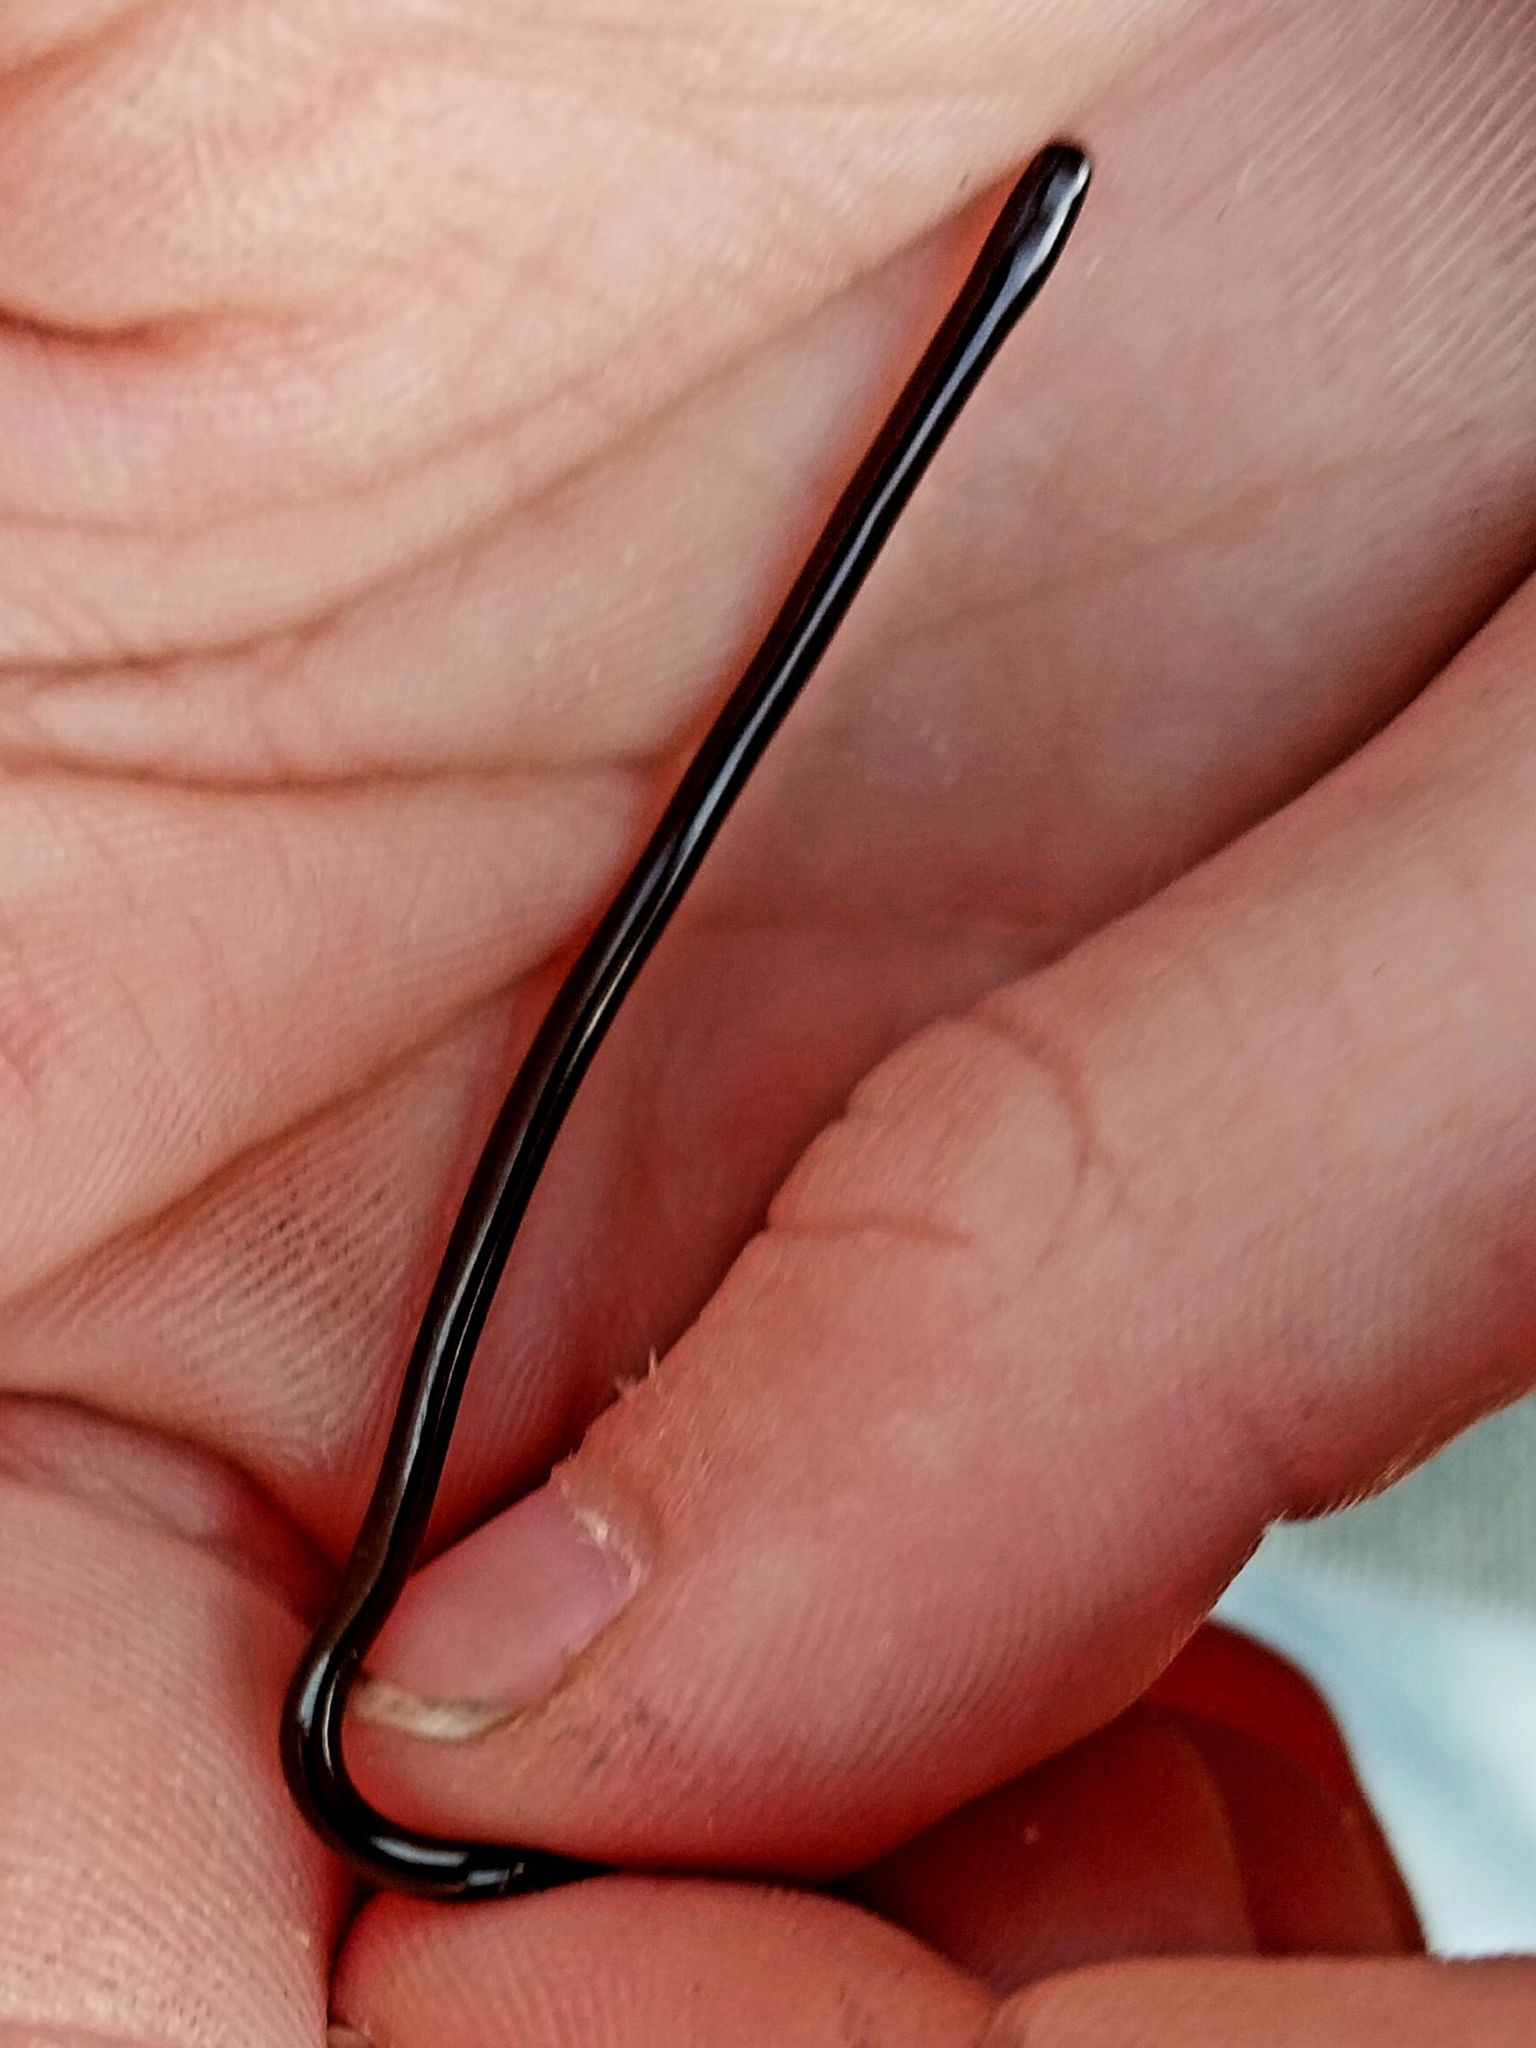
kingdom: Animalia
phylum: Chordata
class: Squamata
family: Typhlopidae
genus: Indotyphlops
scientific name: Indotyphlops braminus
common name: Brahminy blindsnake
